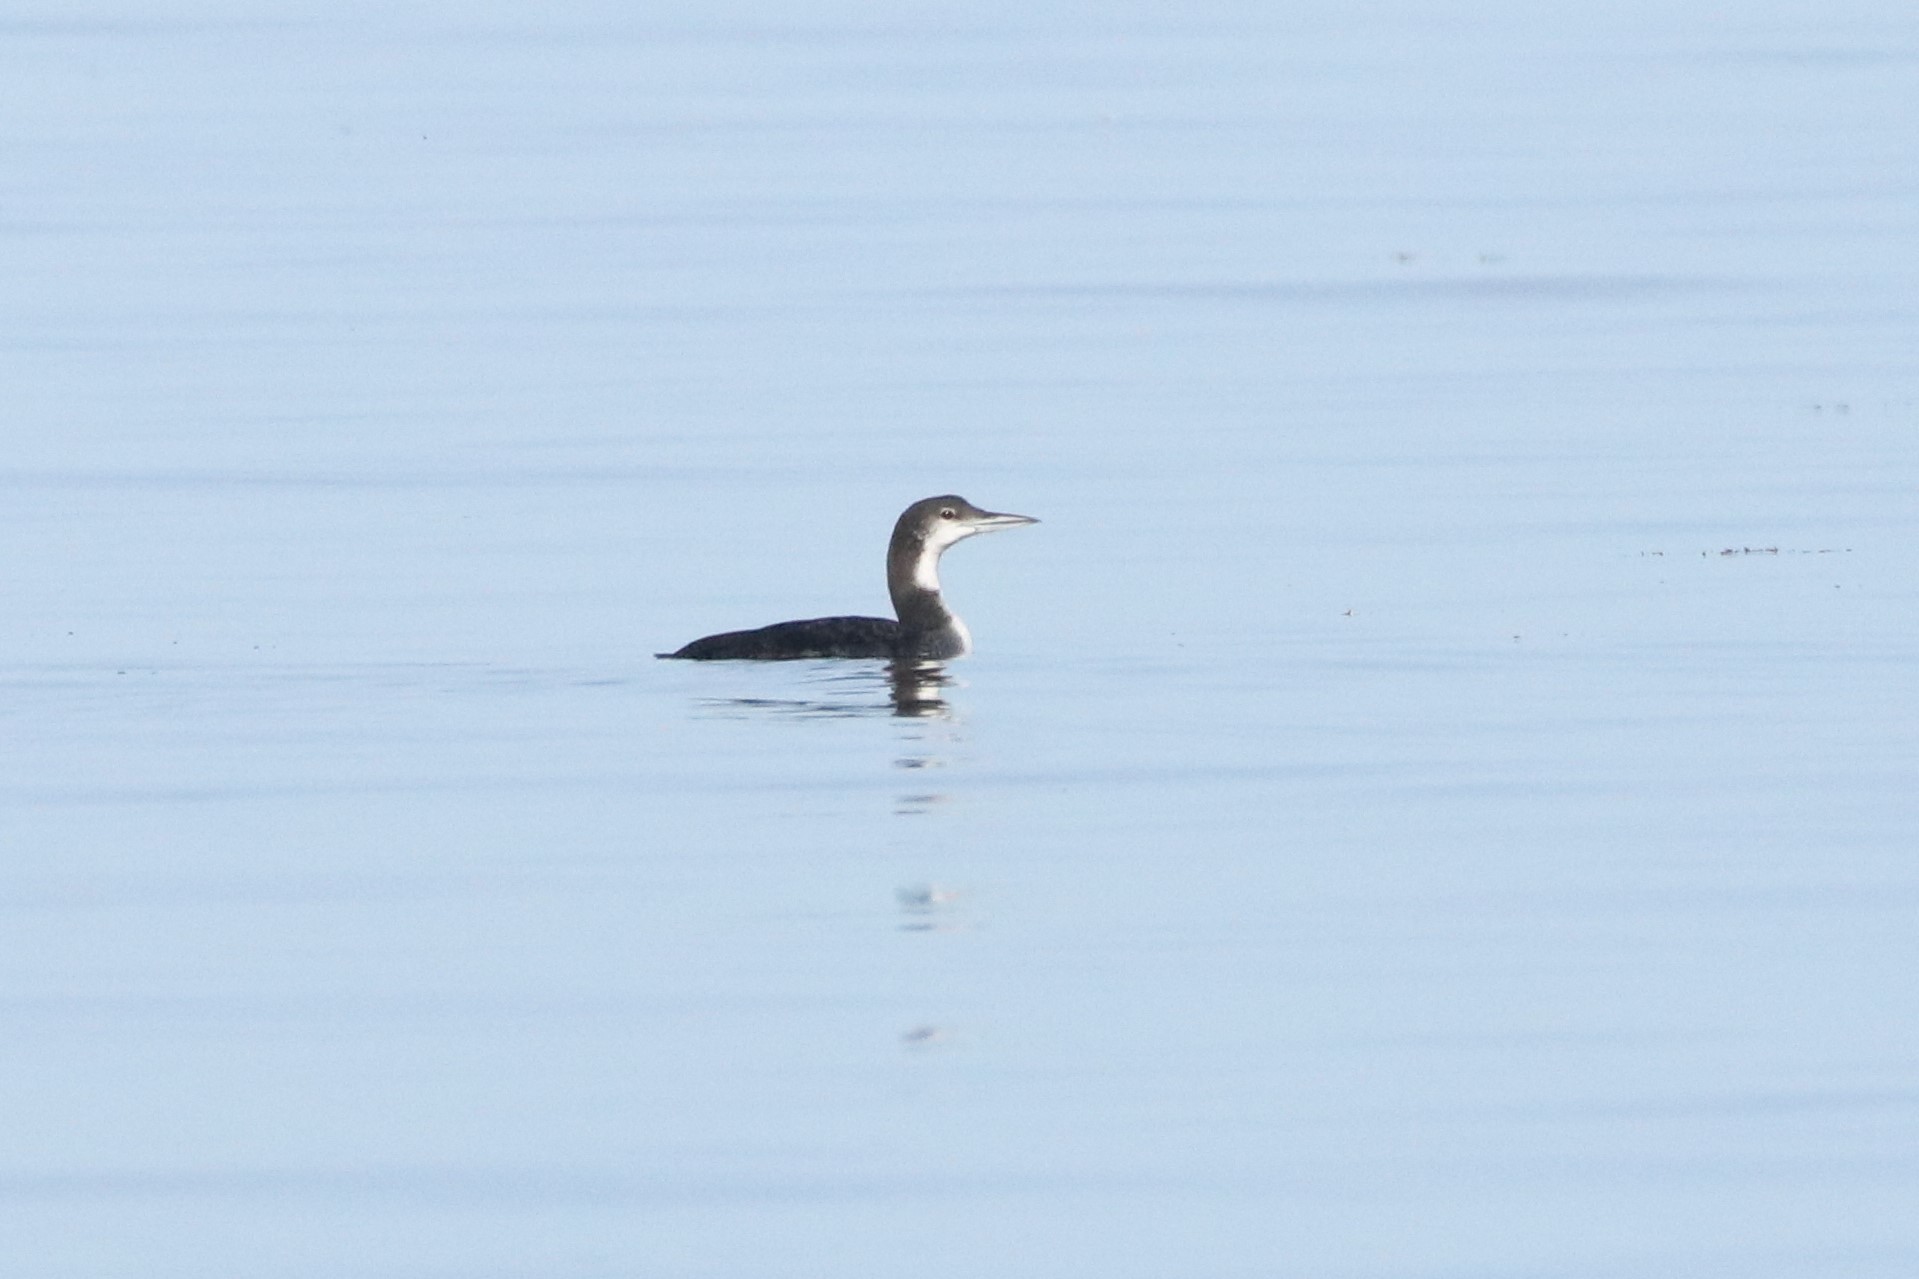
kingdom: Animalia
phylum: Chordata
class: Aves
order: Gaviiformes
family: Gaviidae
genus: Gavia
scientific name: Gavia immer
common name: Common loon
